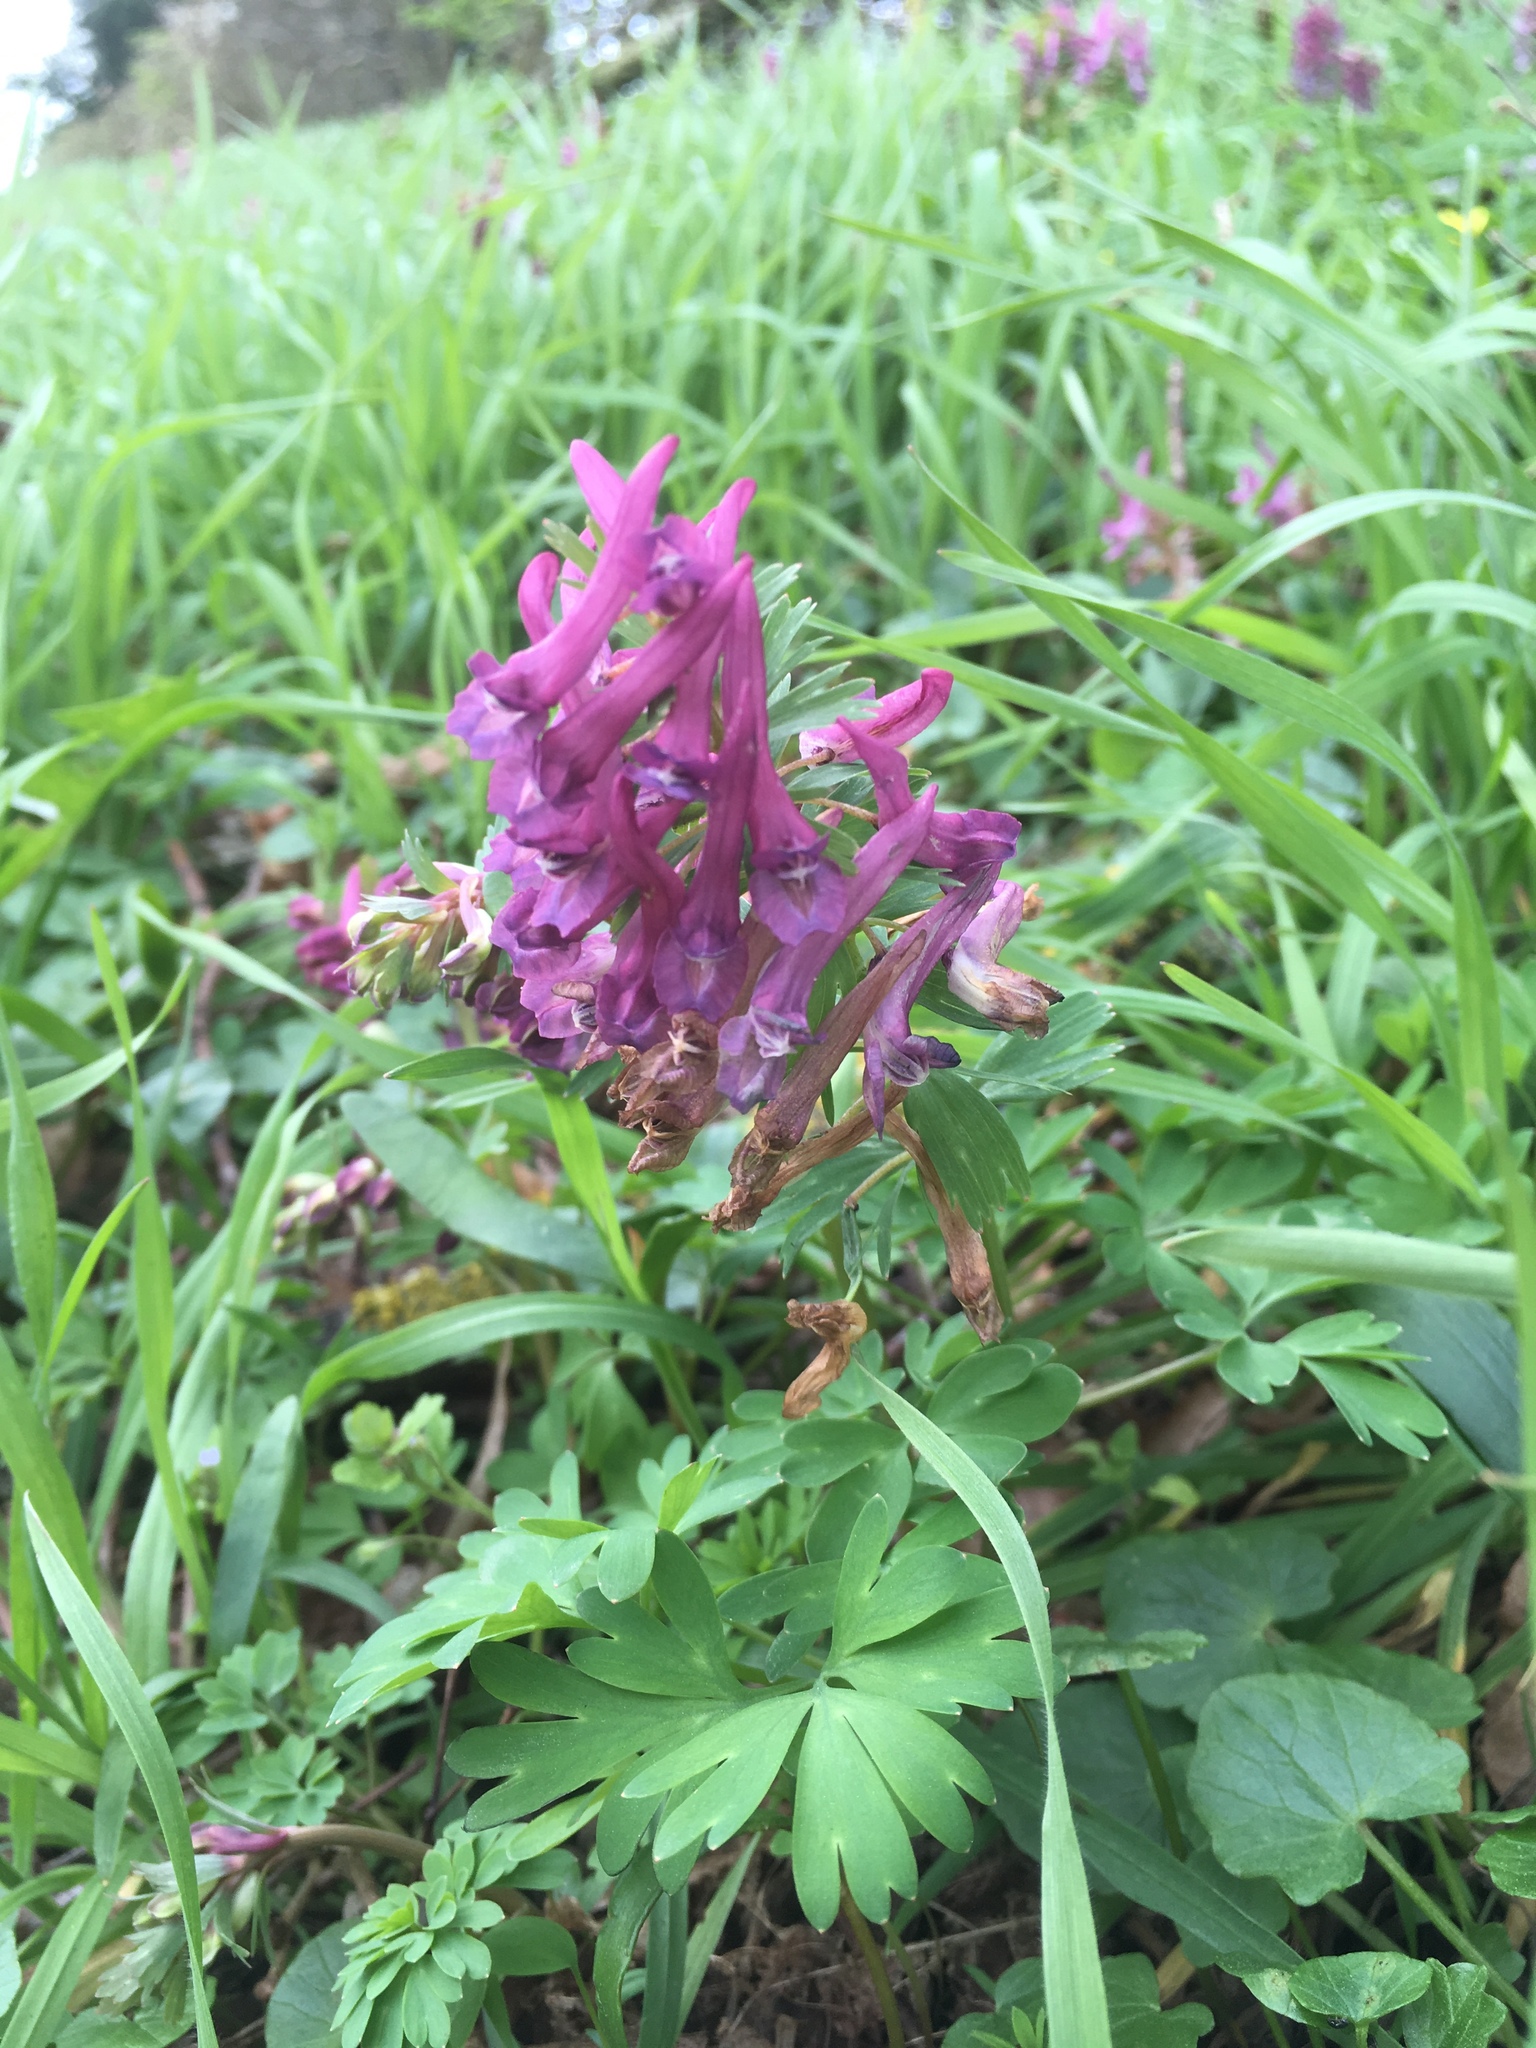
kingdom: Plantae
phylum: Tracheophyta
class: Magnoliopsida
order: Ranunculales
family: Papaveraceae
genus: Corydalis
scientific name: Corydalis solida
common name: Bird-in-a-bush
